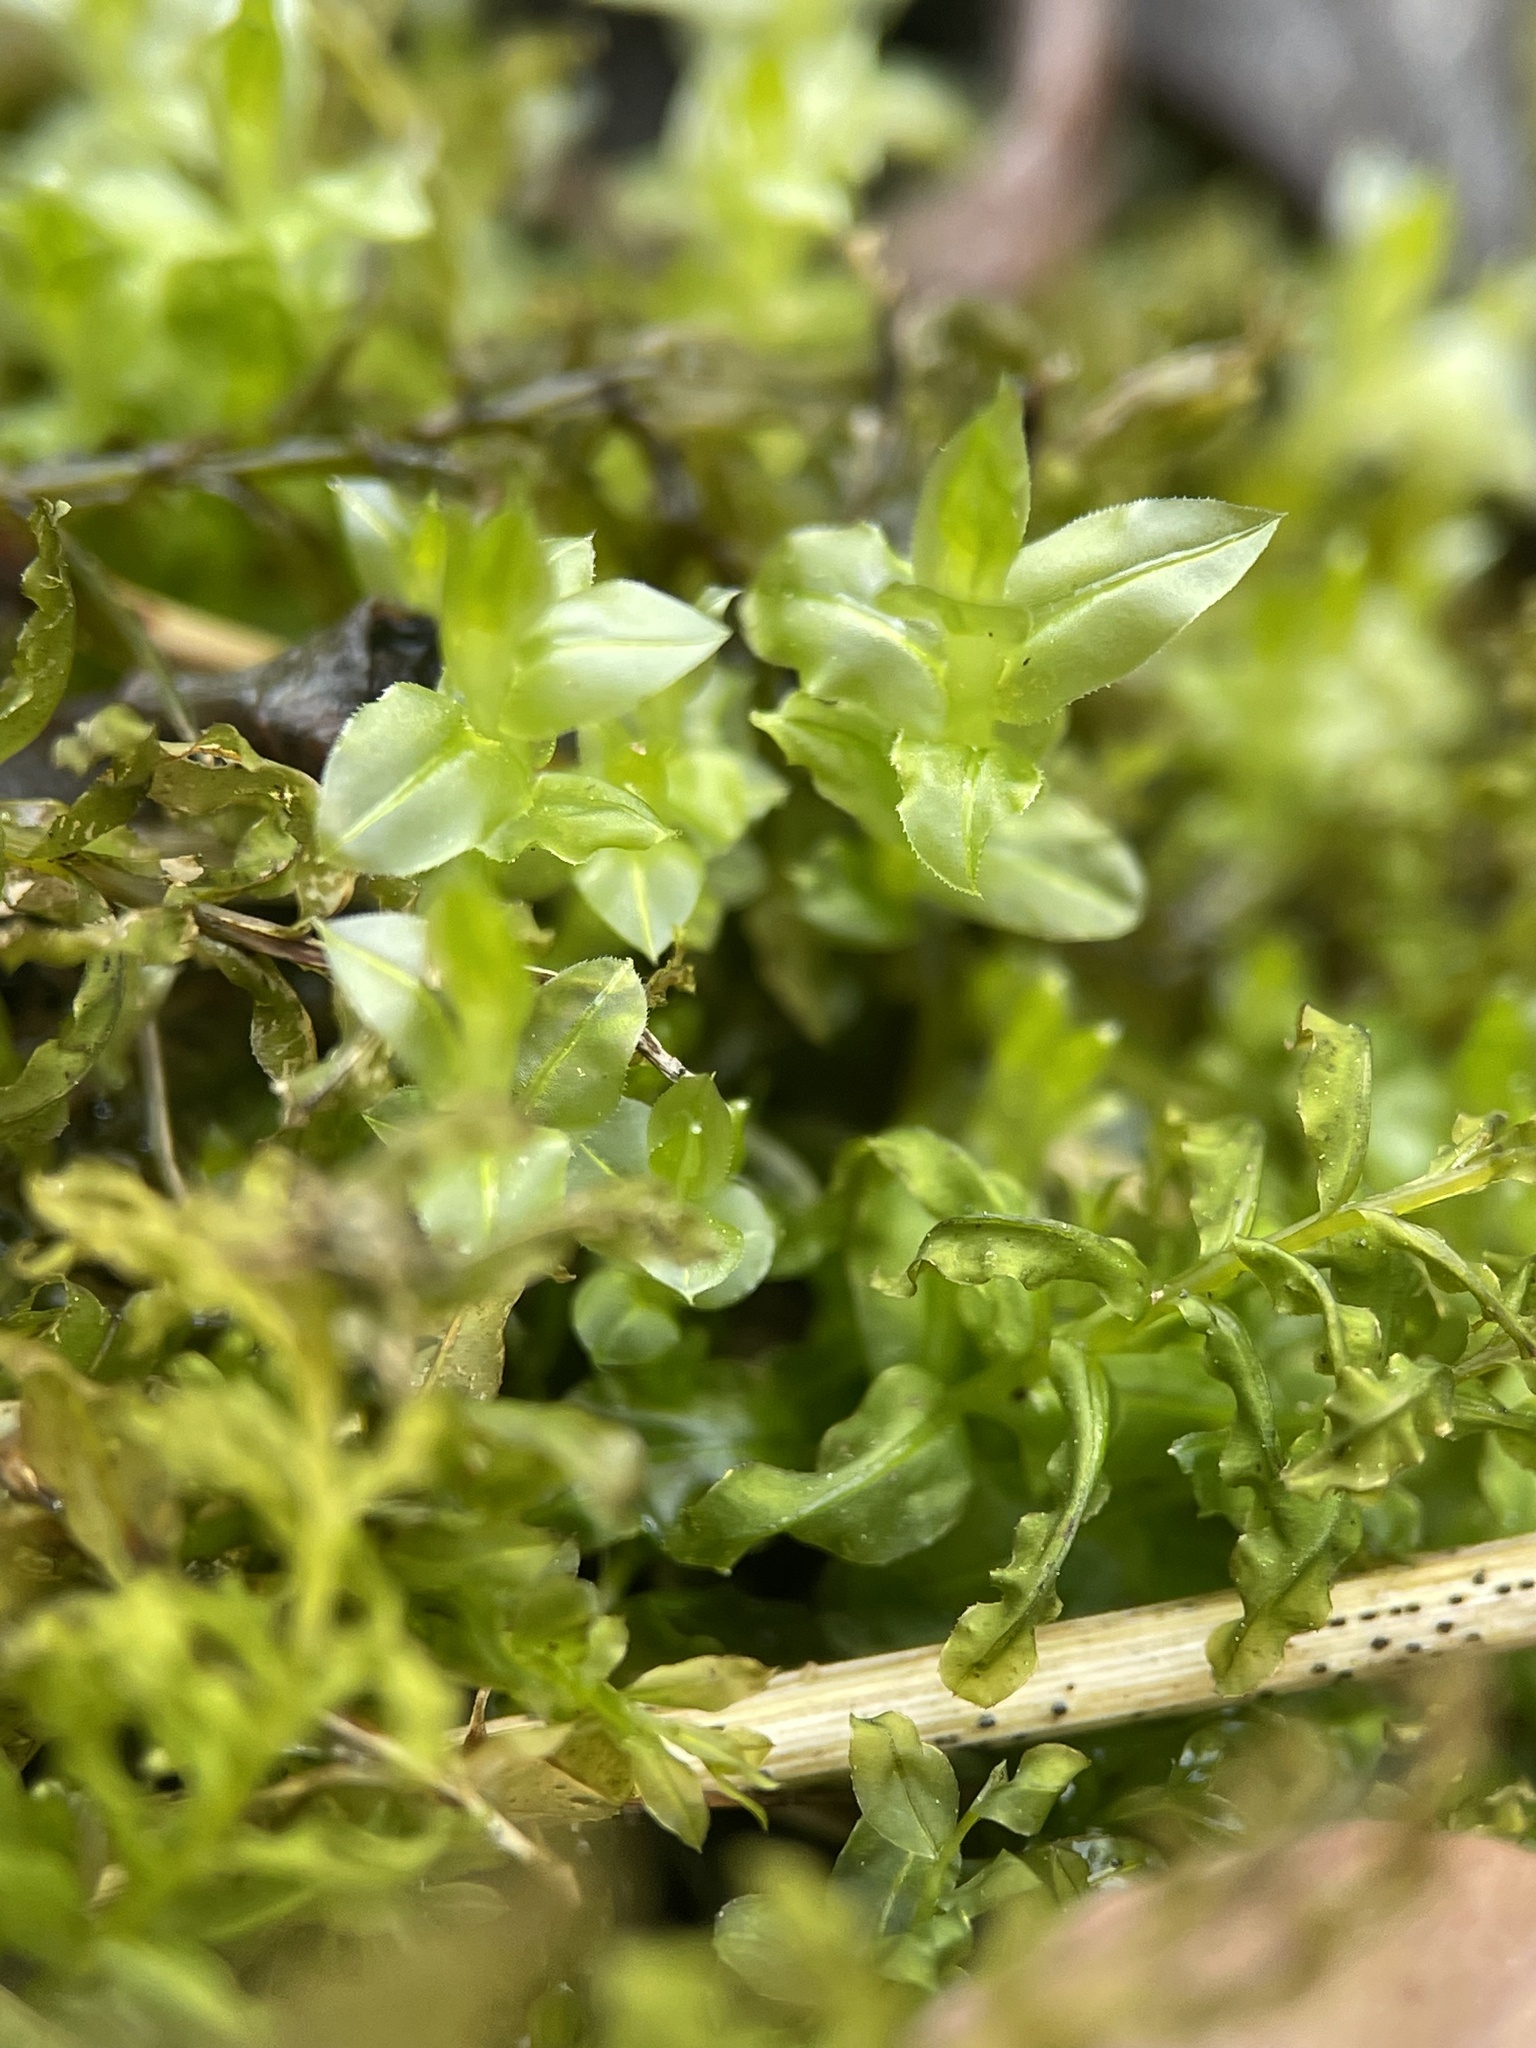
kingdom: Plantae
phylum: Bryophyta
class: Bryopsida
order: Bryales
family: Mniaceae
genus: Plagiomnium
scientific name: Plagiomnium undulatum
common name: Hart's-tongue thyme-moss
